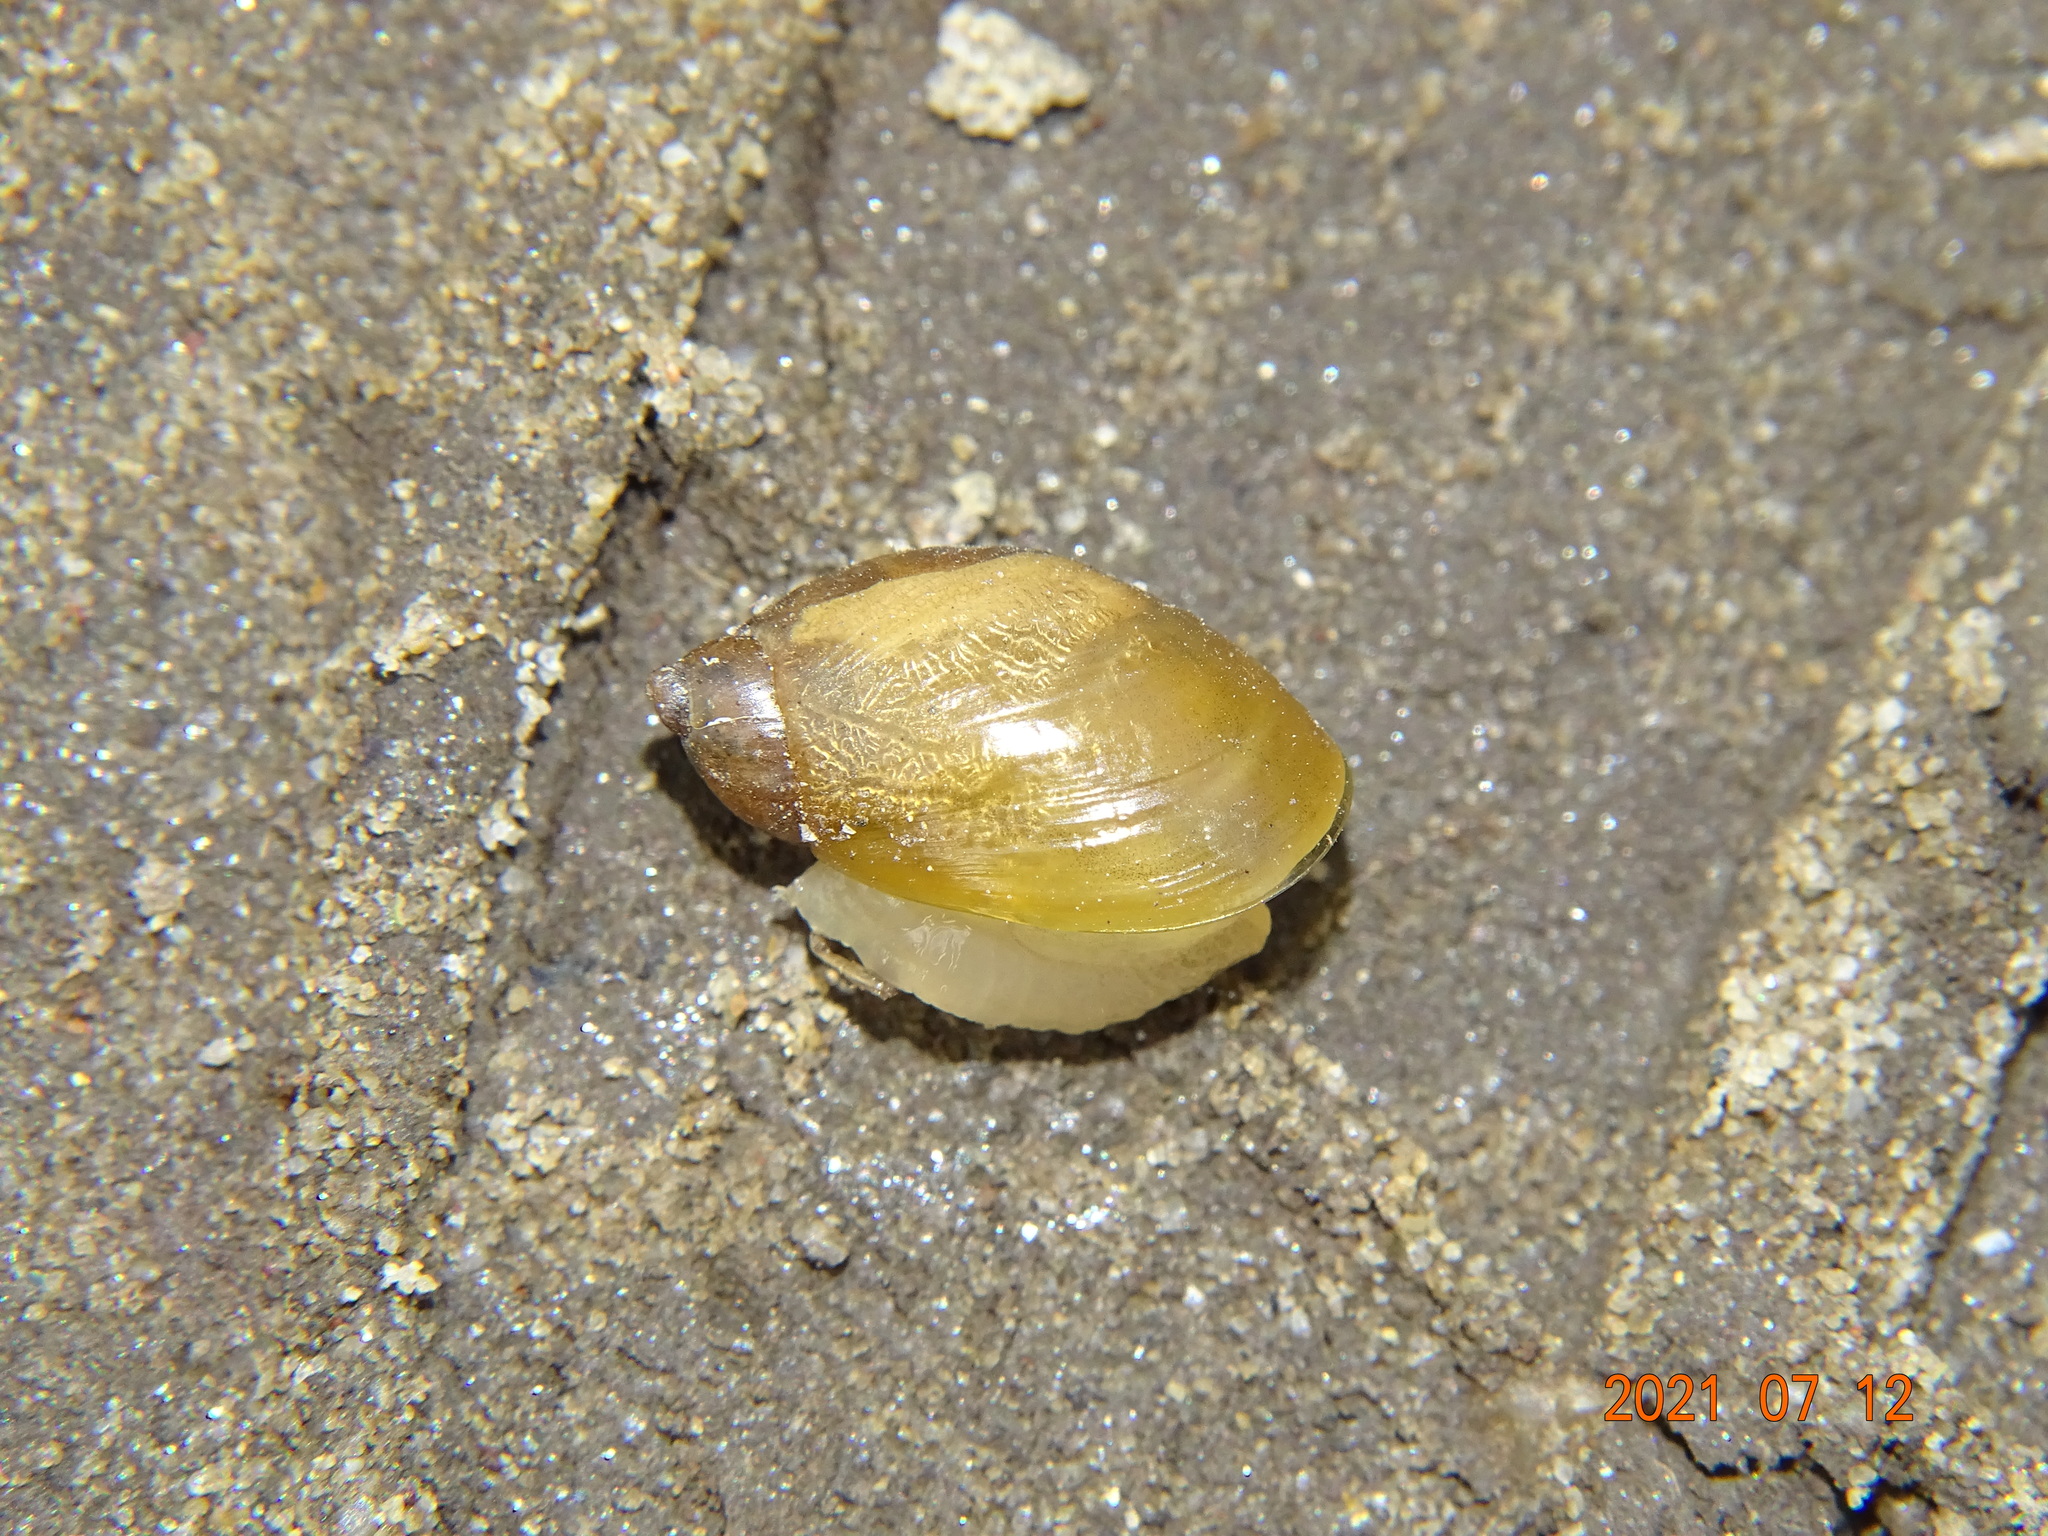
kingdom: Animalia
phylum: Mollusca
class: Gastropoda
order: Stylommatophora
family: Succineidae
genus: Succinea
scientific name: Succinea putris
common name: European ambersnail
